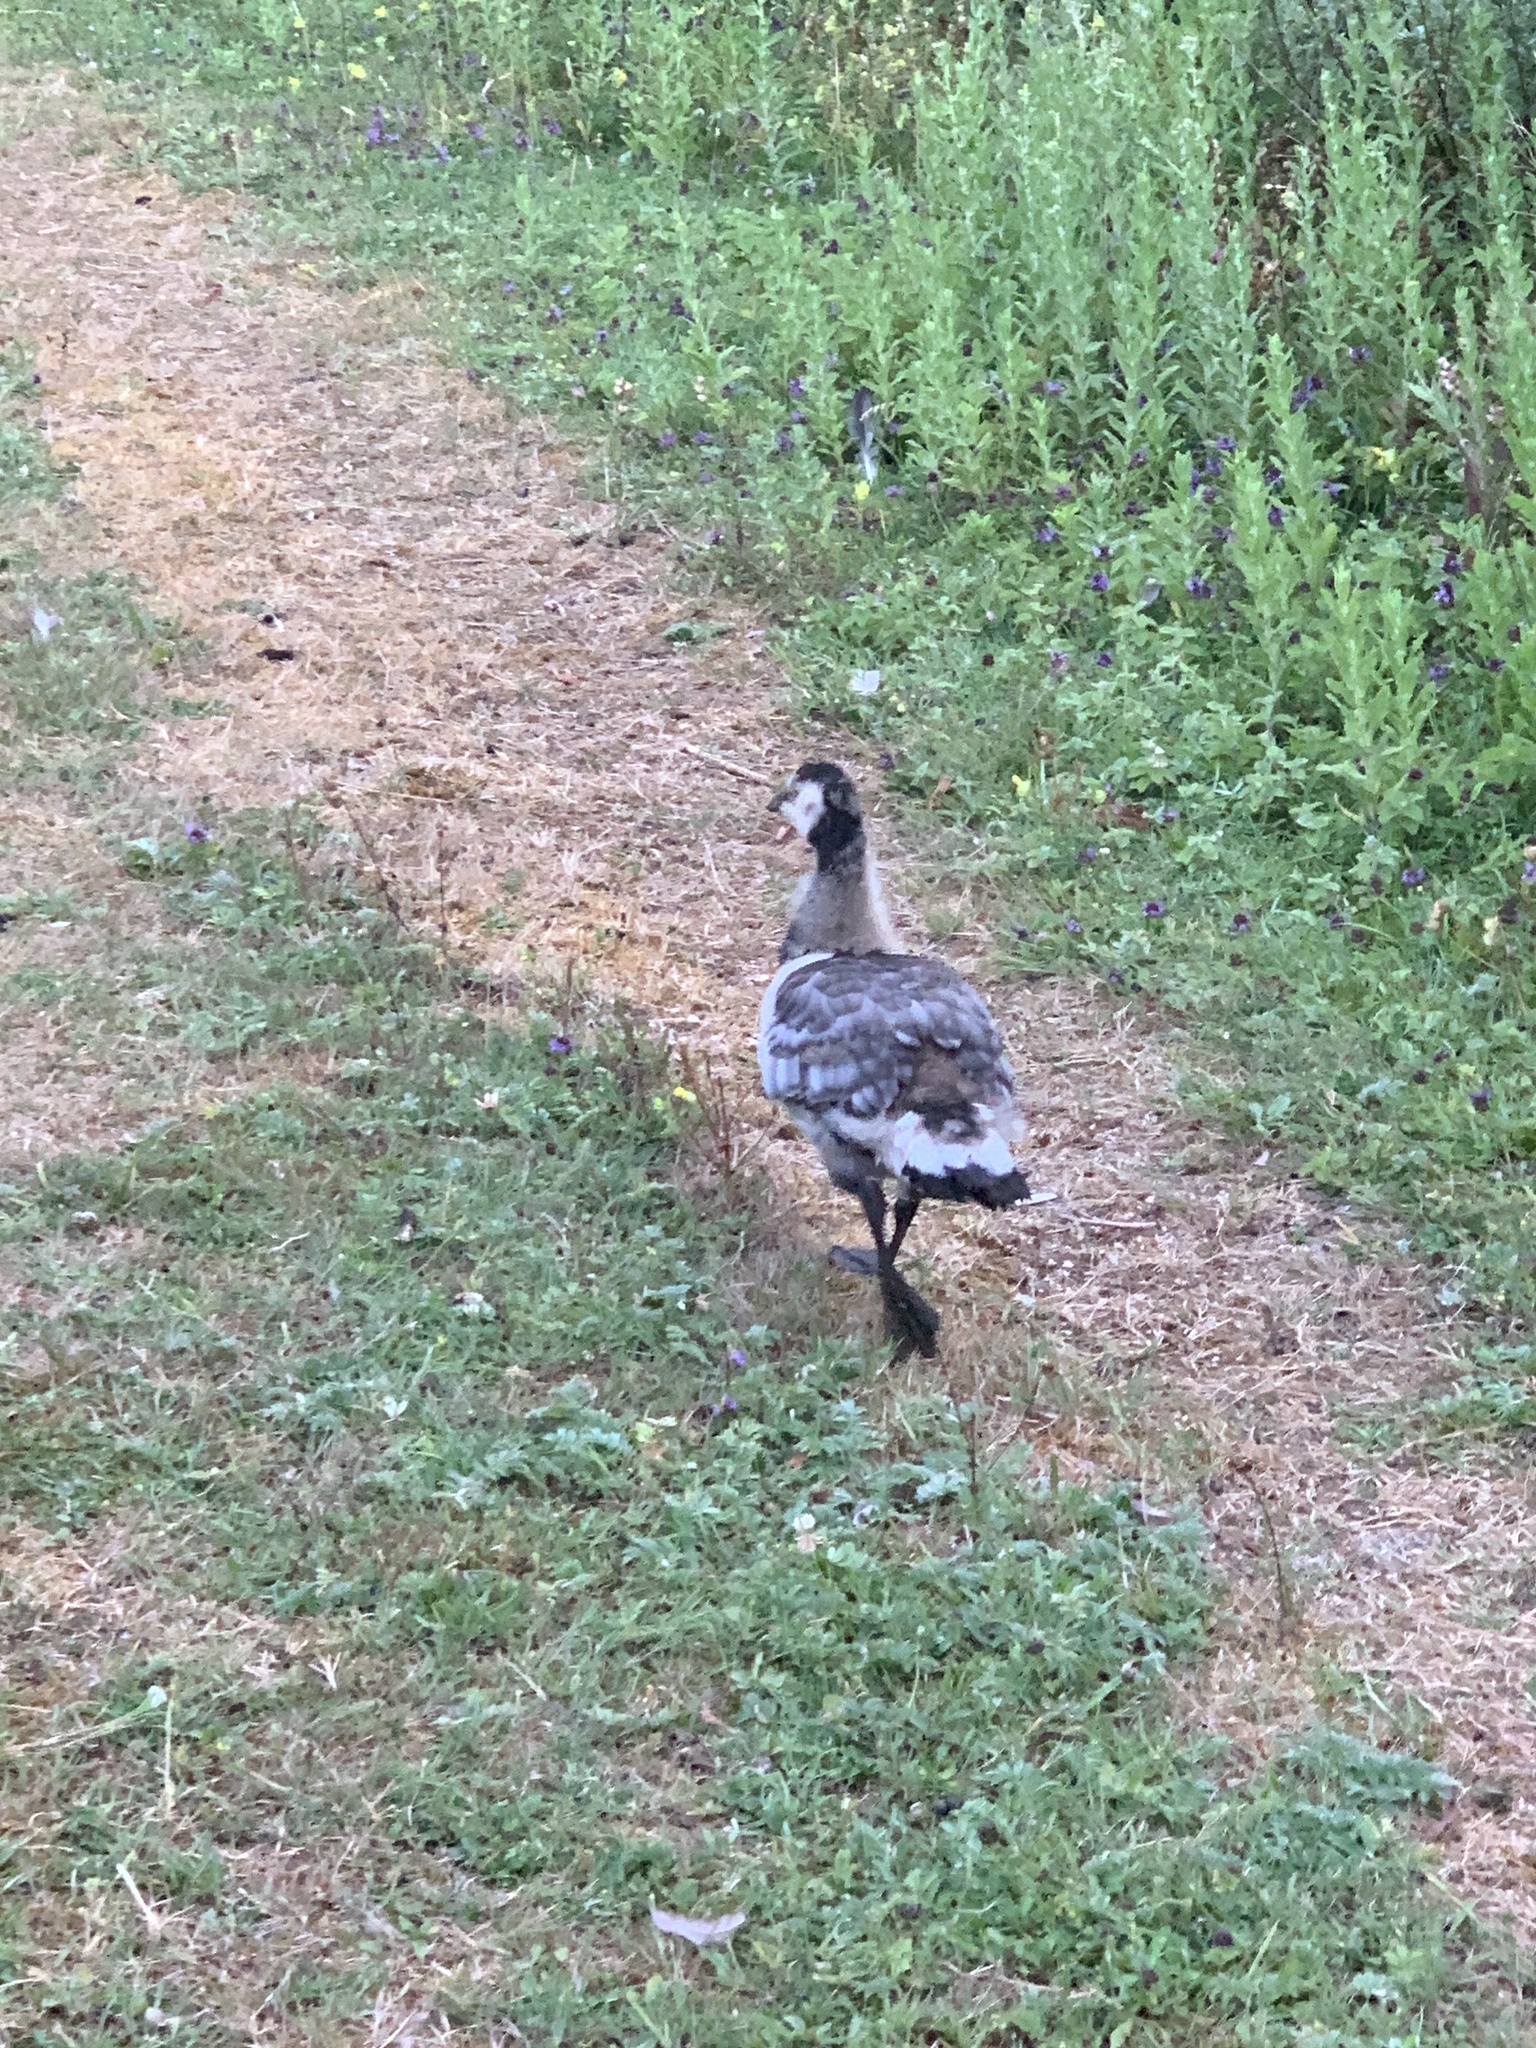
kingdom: Animalia
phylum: Chordata
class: Aves
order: Anseriformes
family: Anatidae
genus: Branta
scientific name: Branta leucopsis
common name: Barnacle goose
